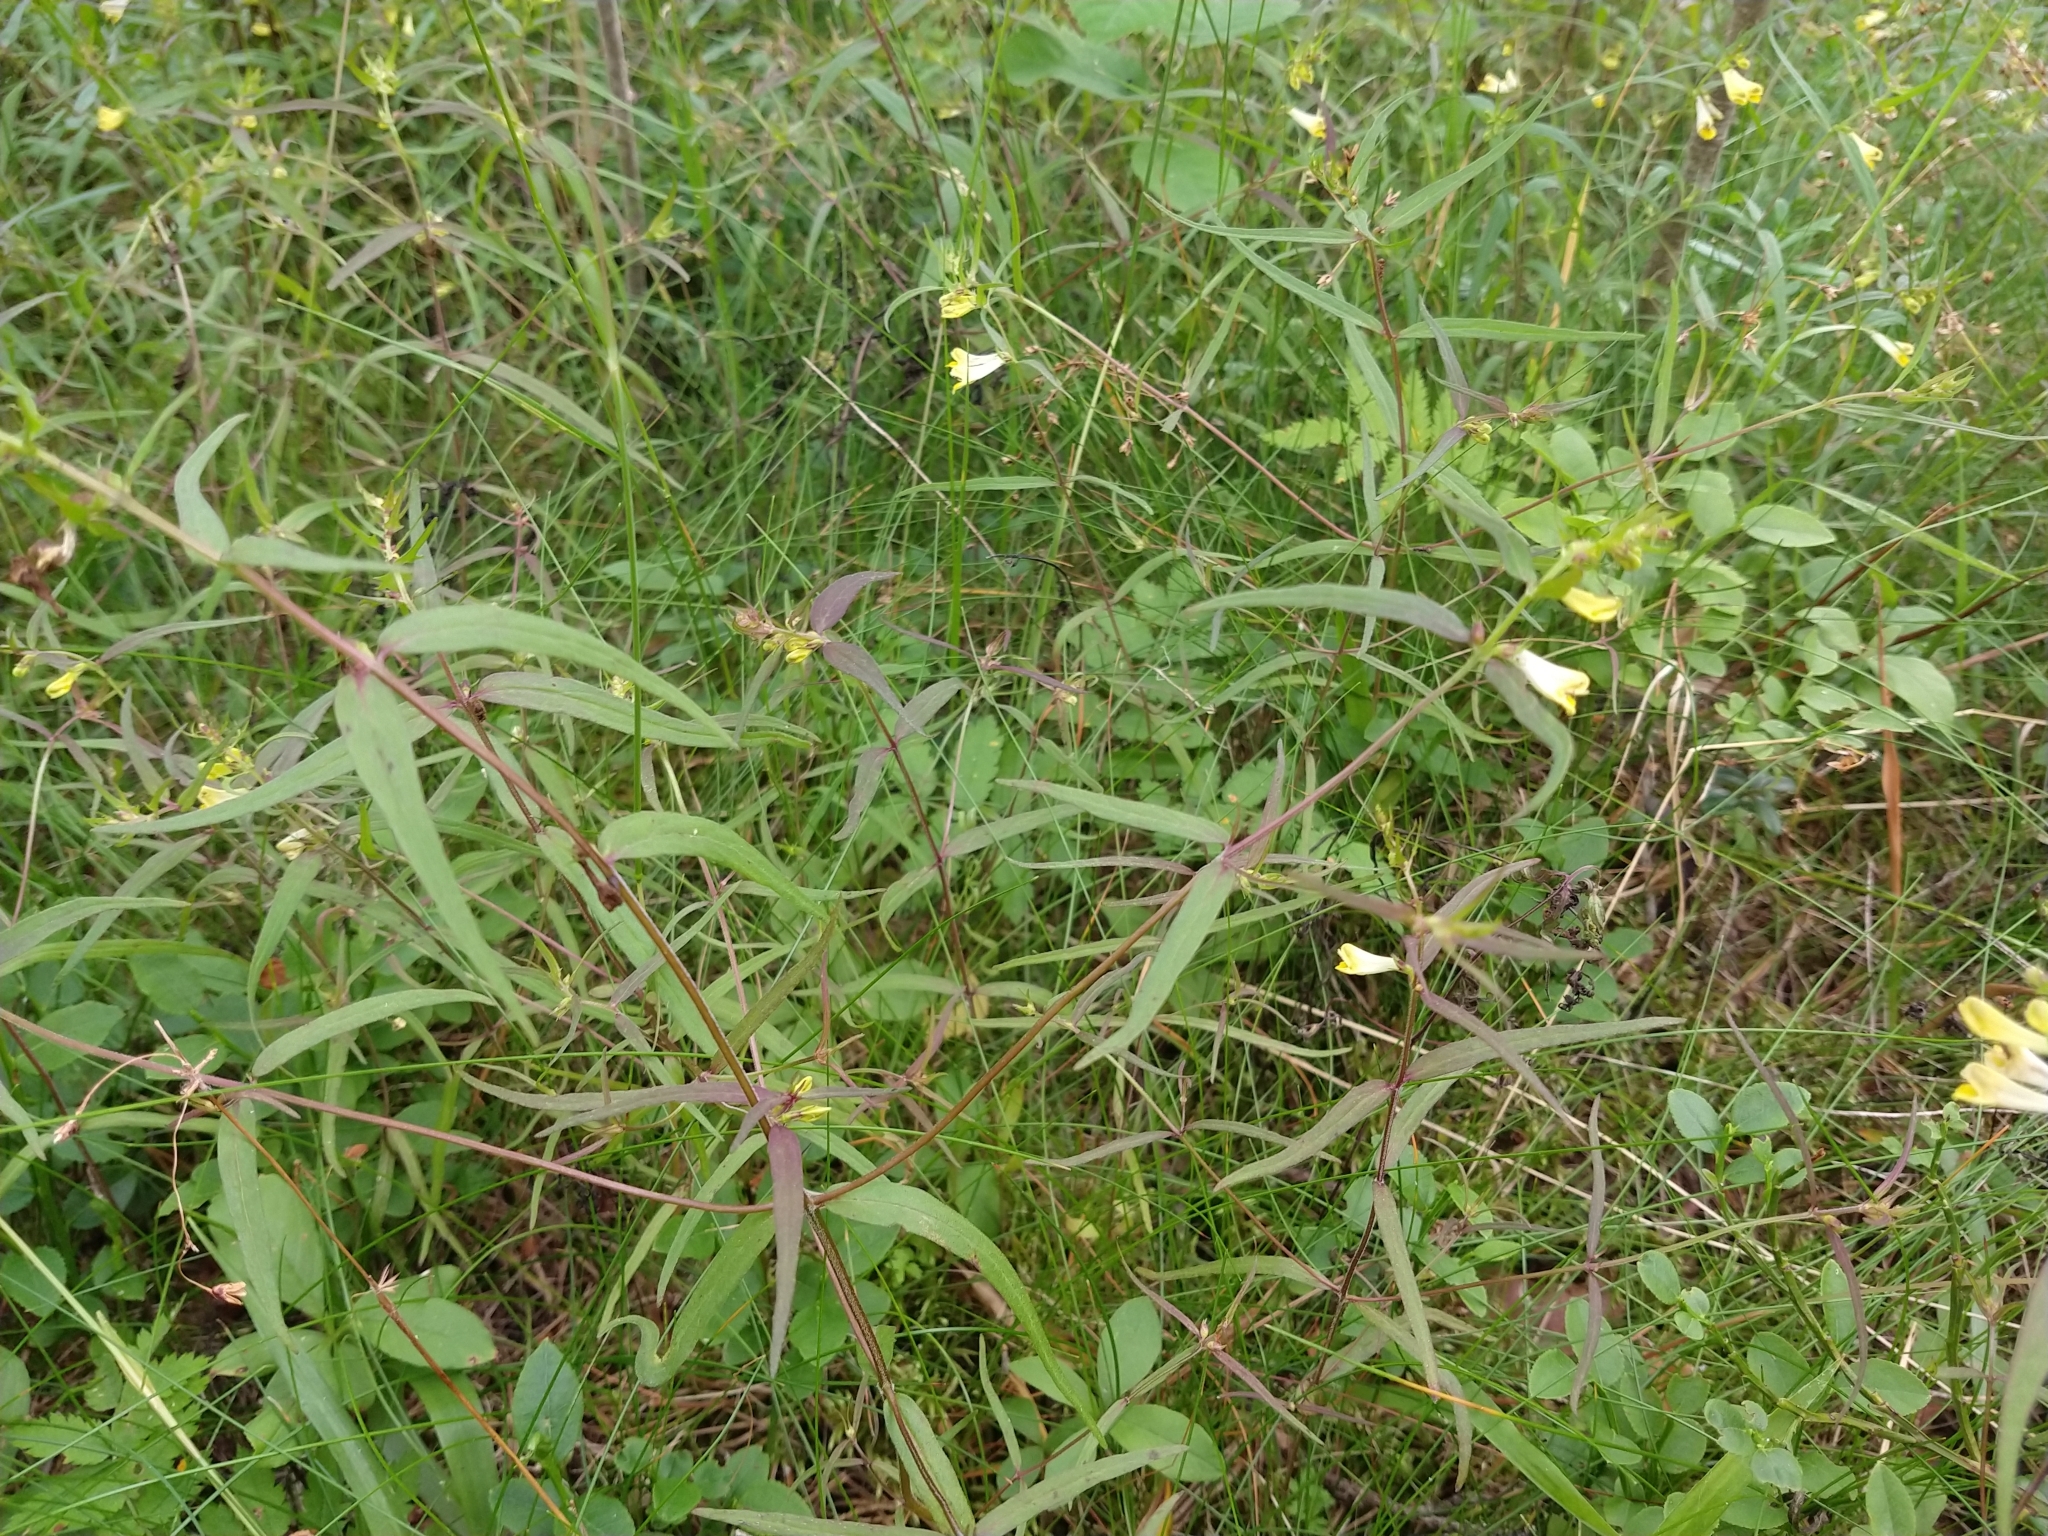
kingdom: Plantae
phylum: Tracheophyta
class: Magnoliopsida
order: Lamiales
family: Orobanchaceae
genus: Melampyrum
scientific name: Melampyrum pratense
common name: Common cow-wheat
